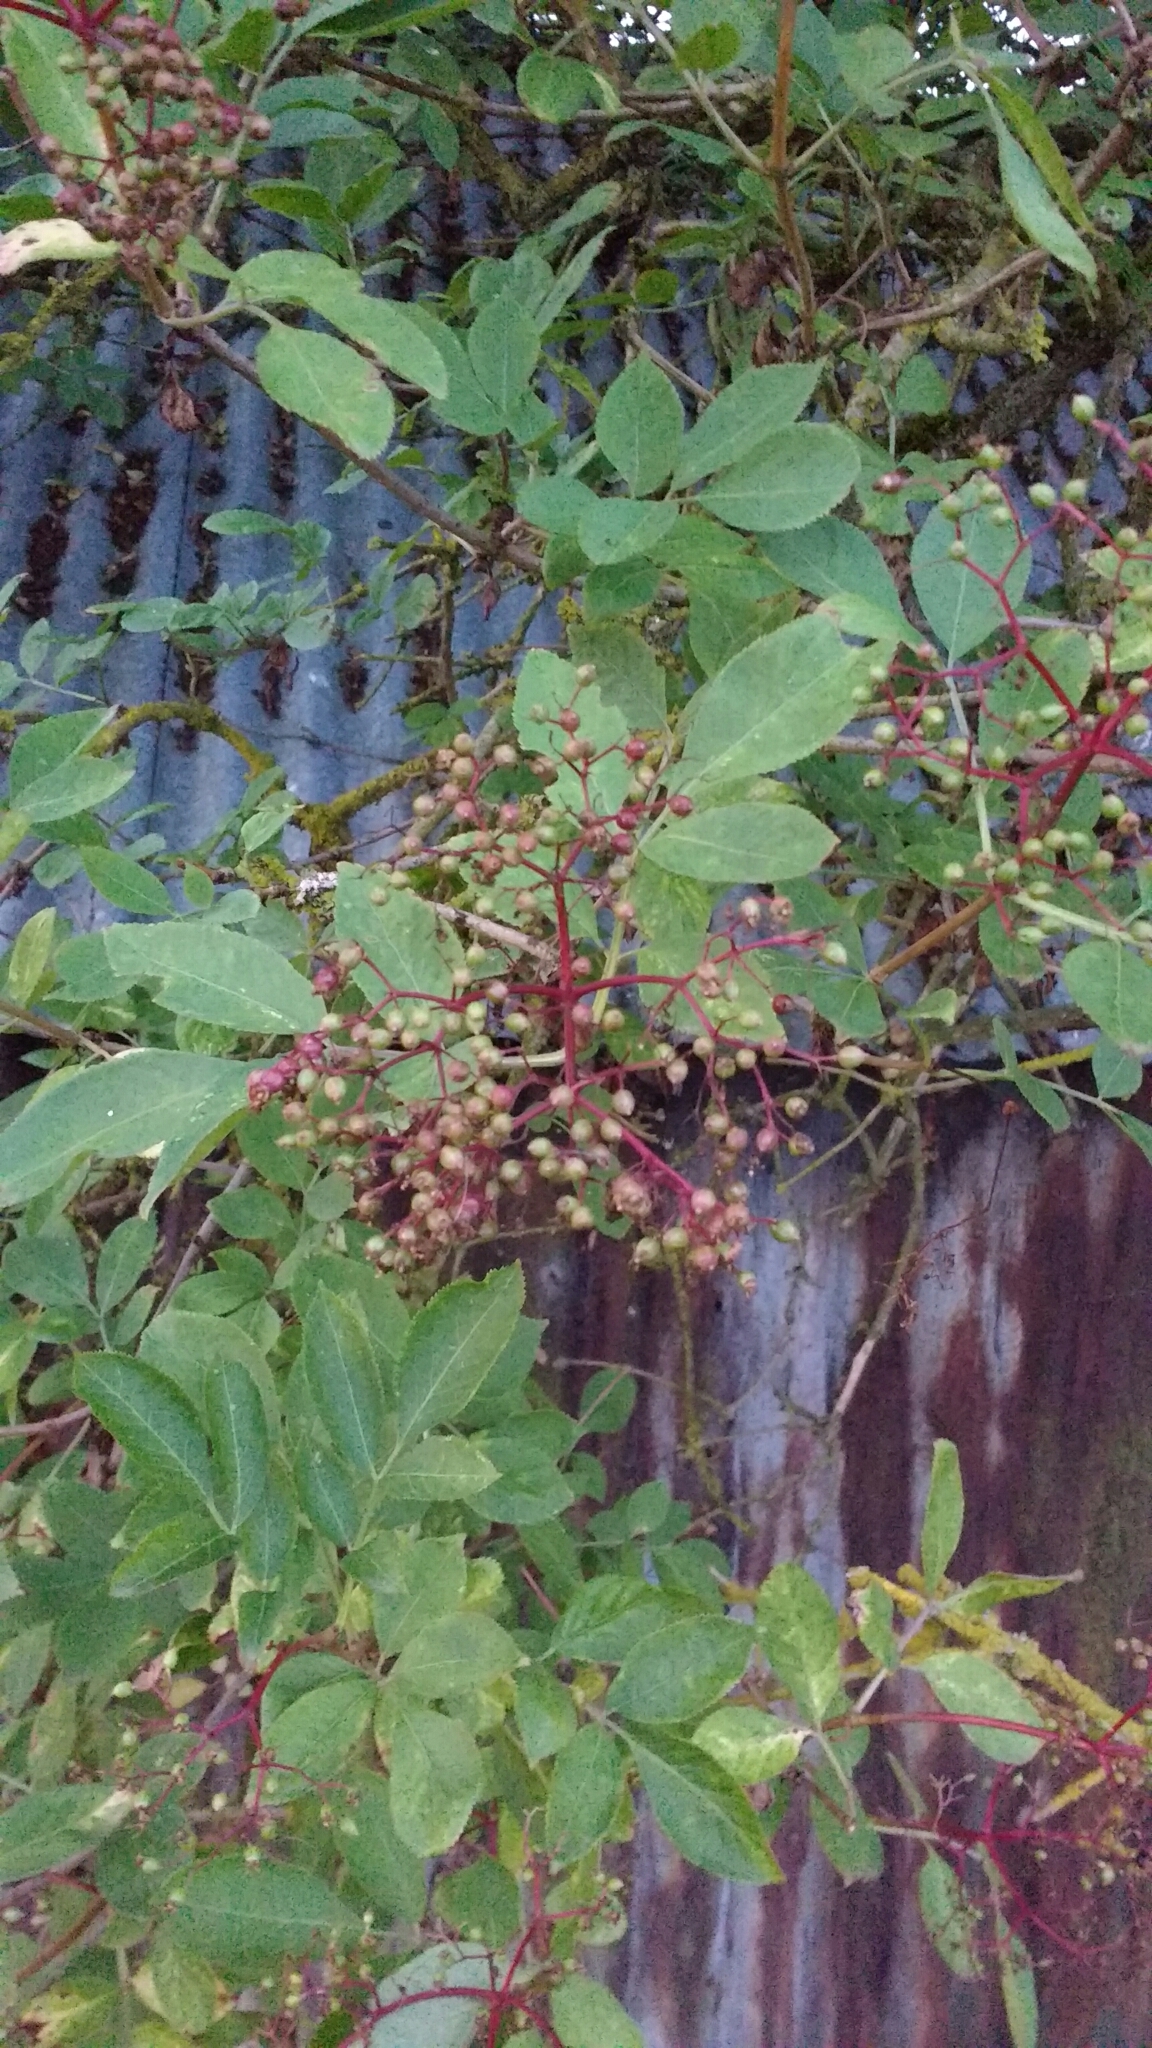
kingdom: Plantae
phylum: Tracheophyta
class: Magnoliopsida
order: Dipsacales
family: Viburnaceae
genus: Sambucus
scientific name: Sambucus nigra
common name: Elder
